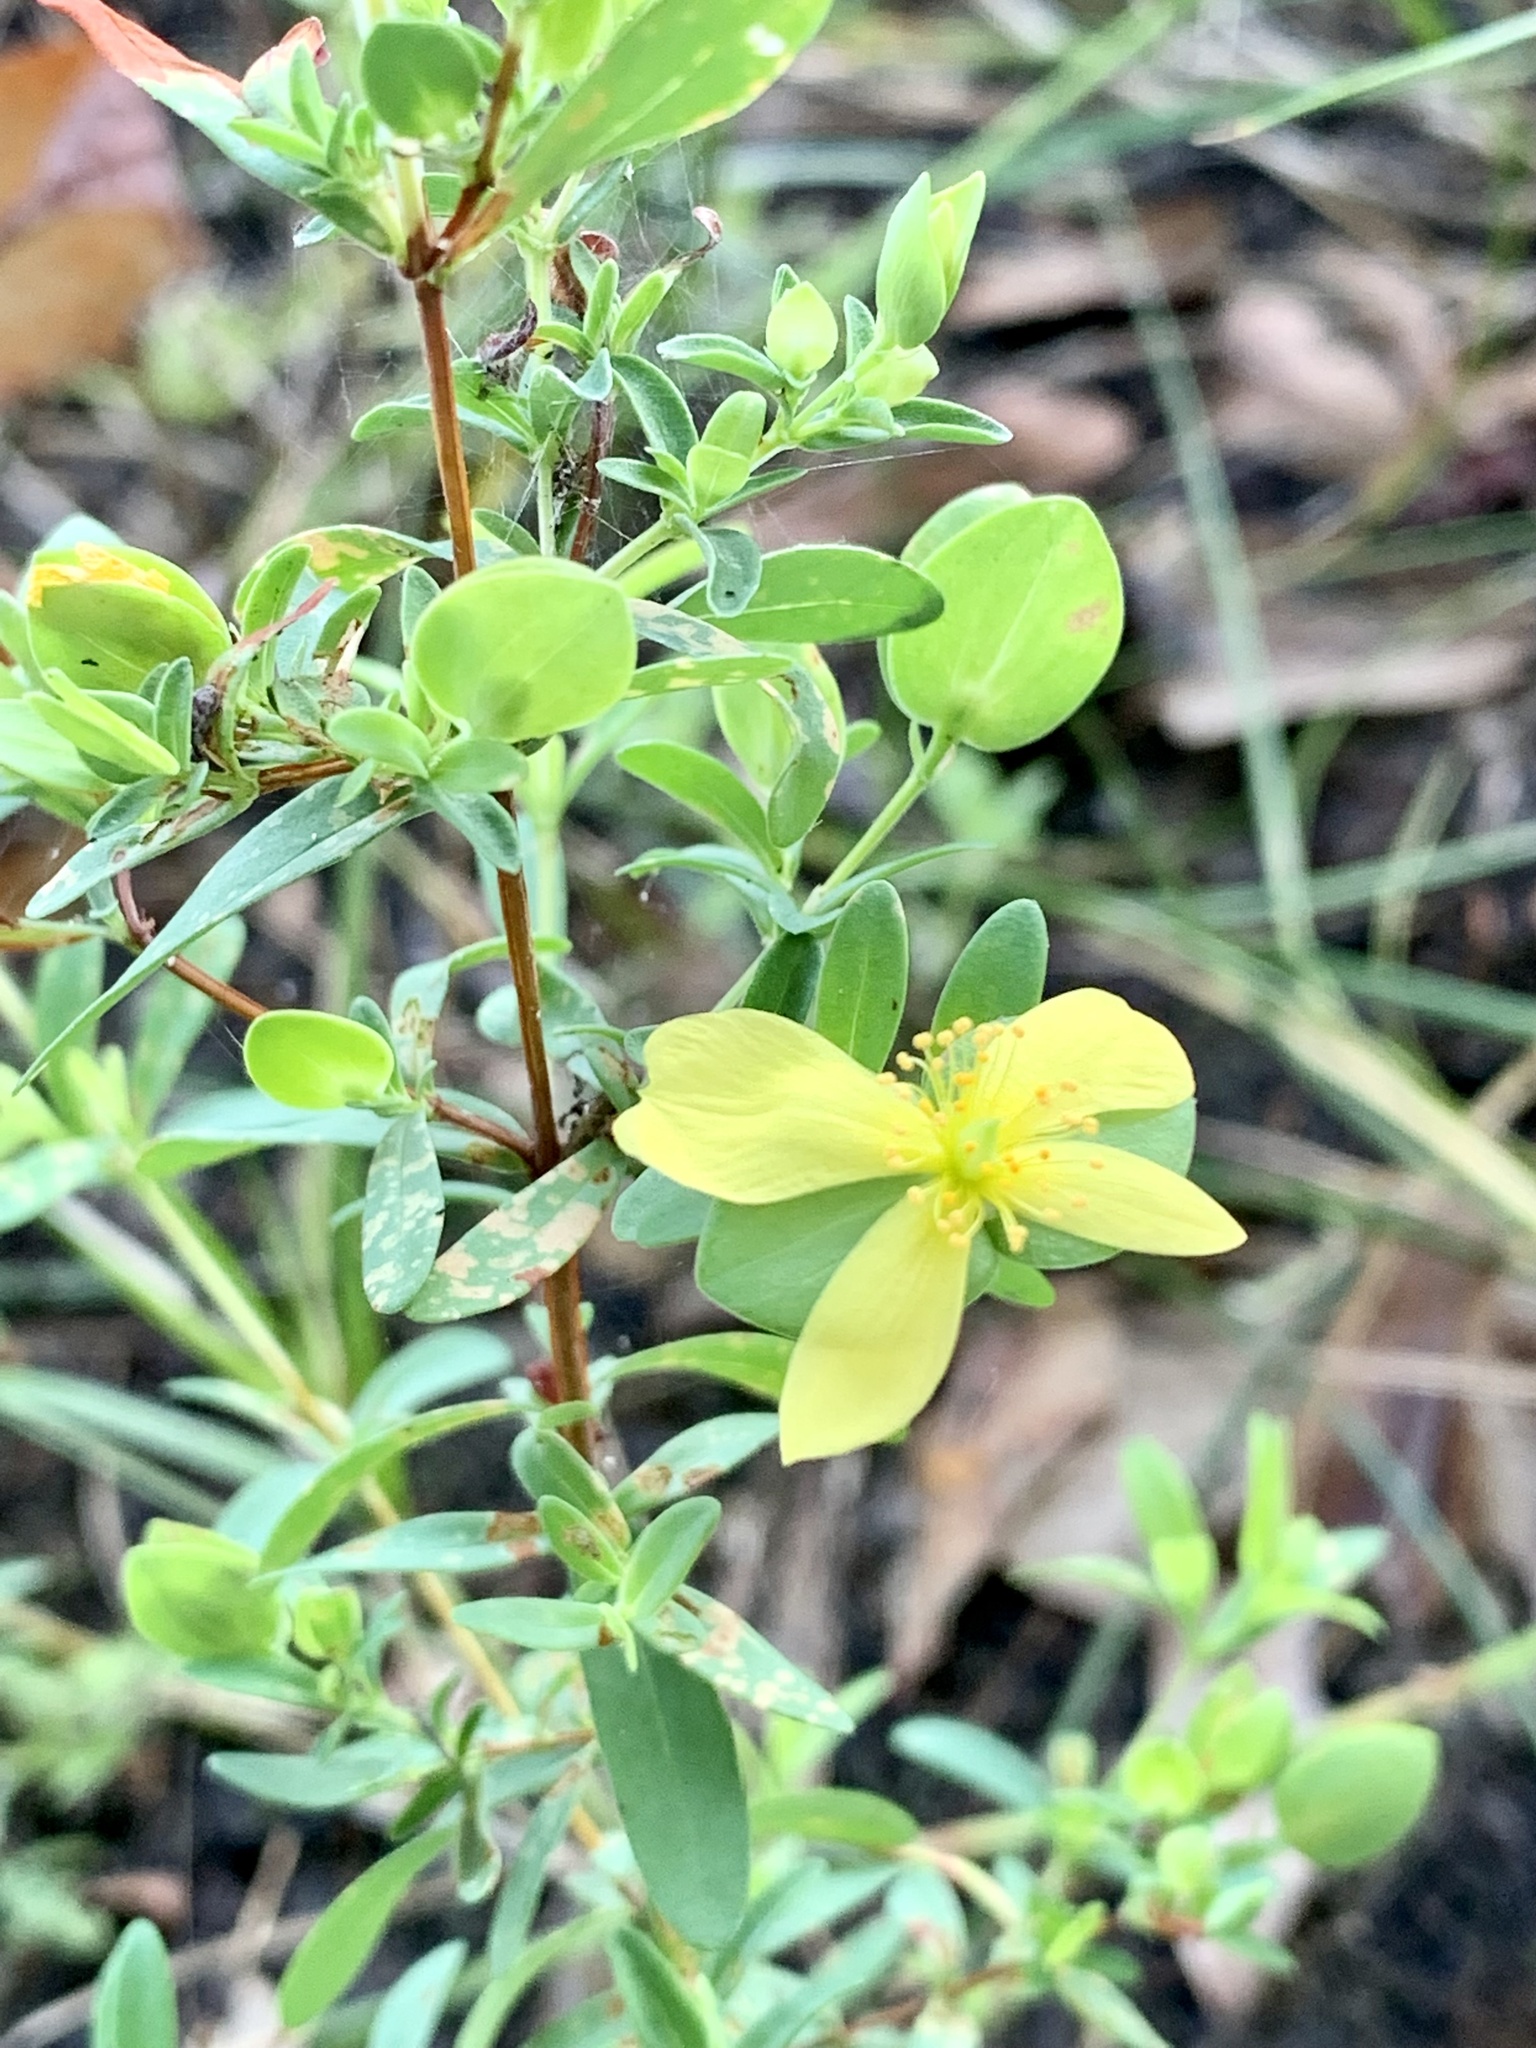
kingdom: Plantae
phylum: Tracheophyta
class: Magnoliopsida
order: Malpighiales
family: Hypericaceae
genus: Hypericum
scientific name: Hypericum hypericoides
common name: St. andrew's cross
